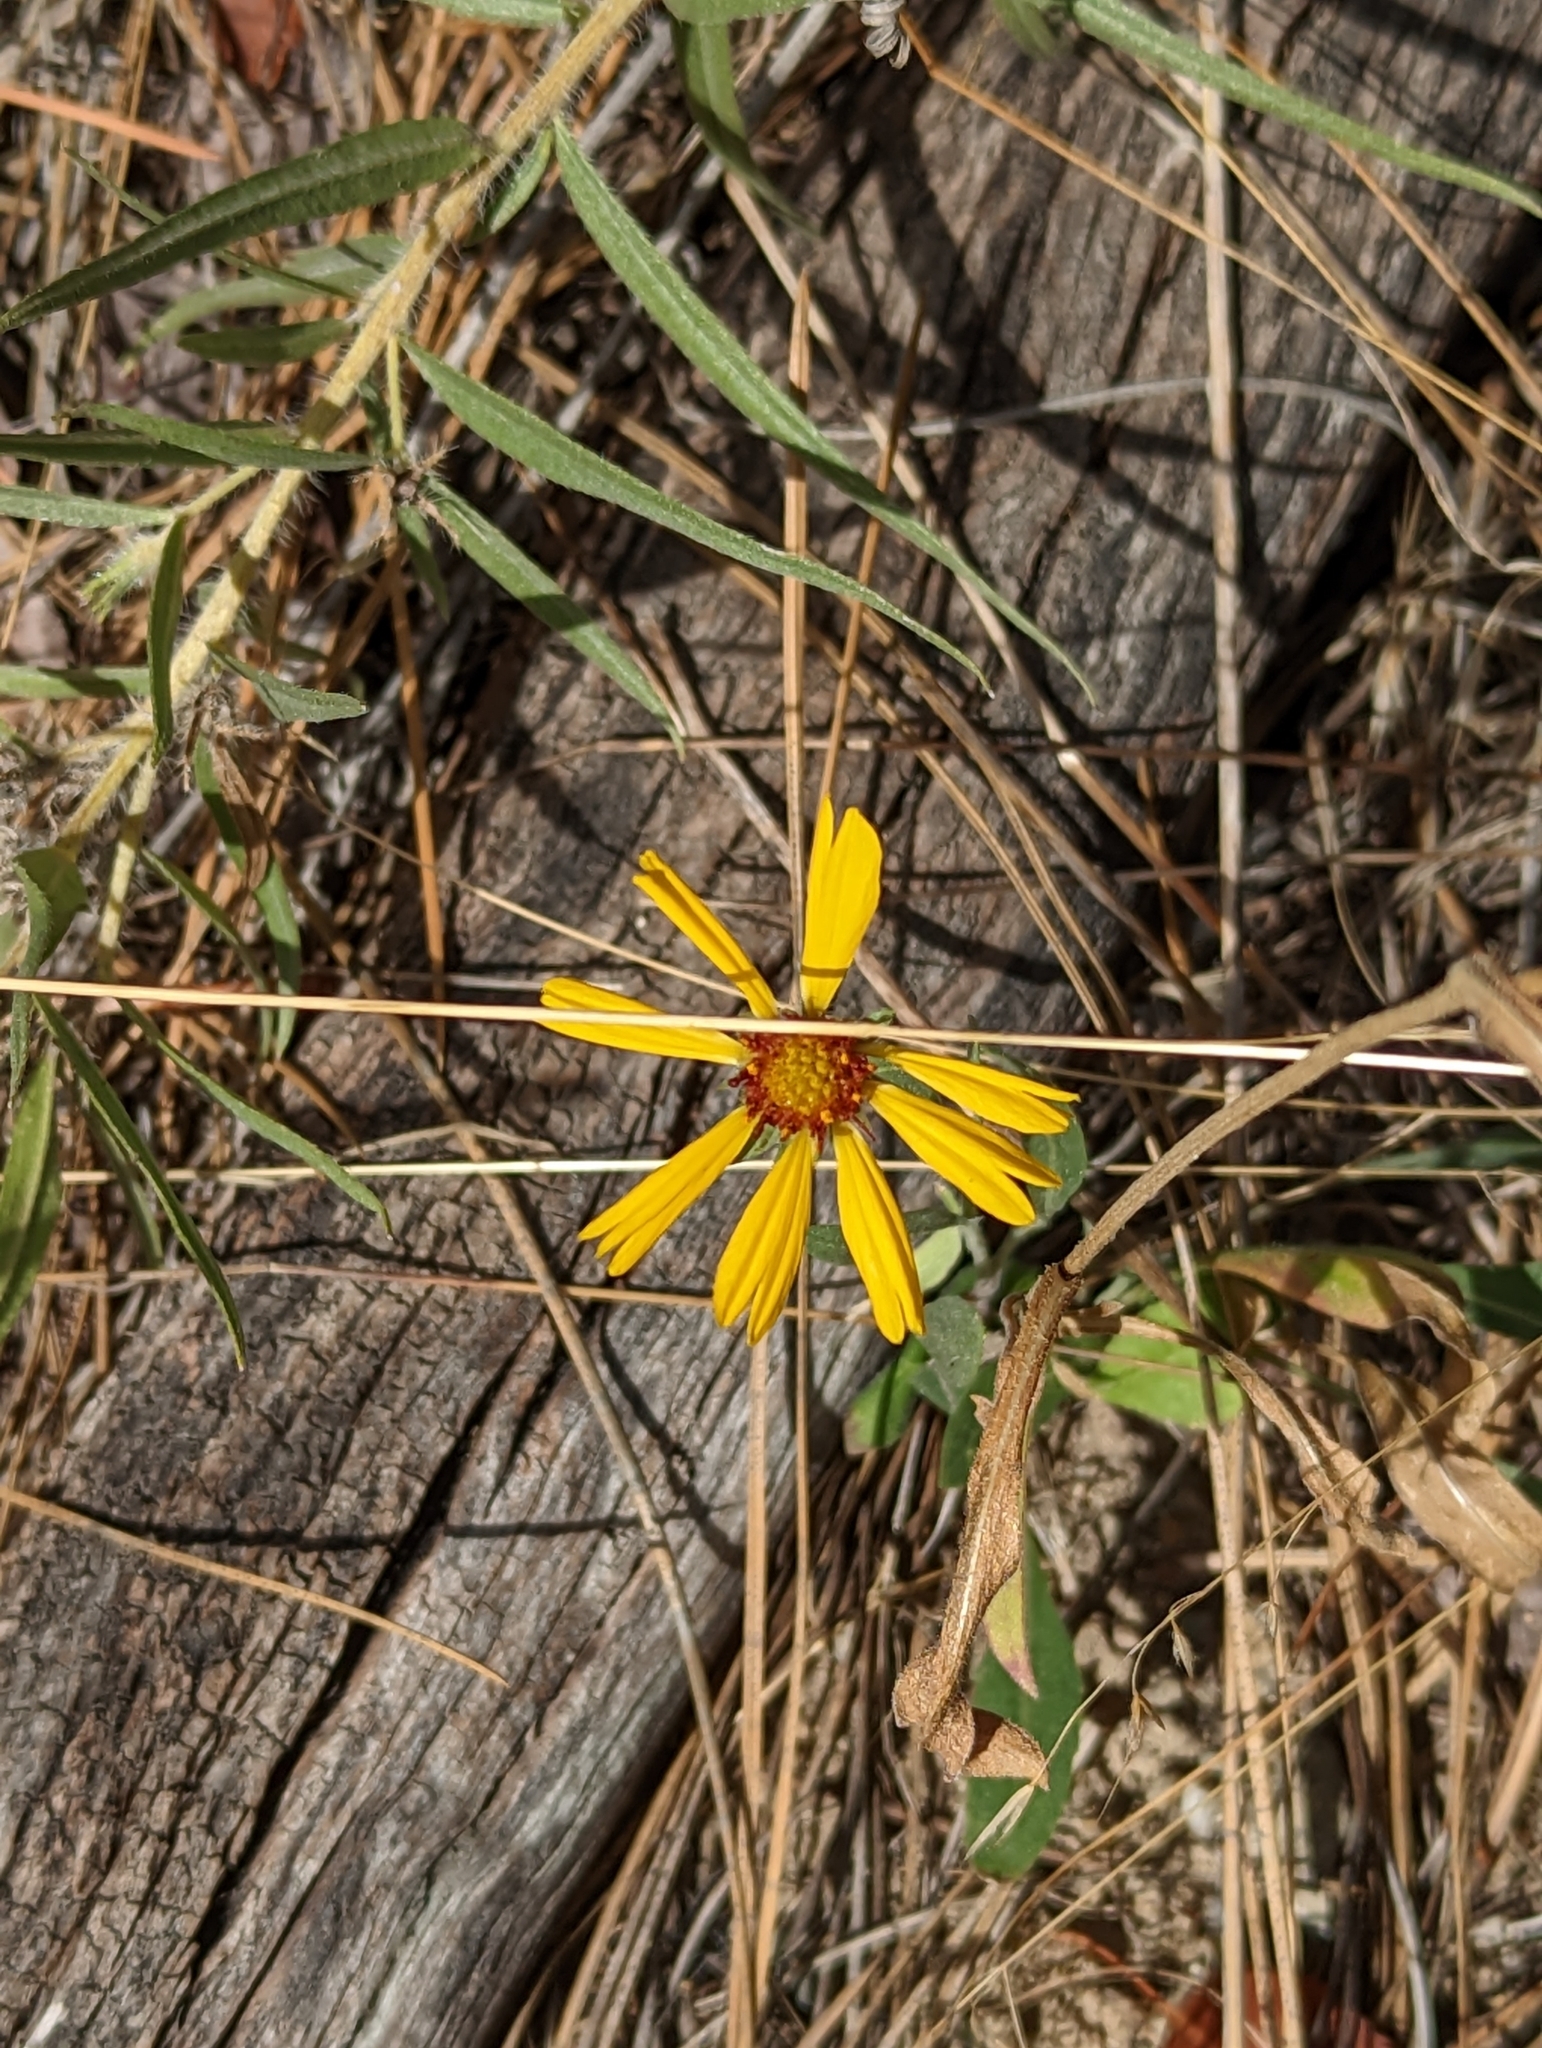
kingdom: Plantae
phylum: Tracheophyta
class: Magnoliopsida
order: Asterales
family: Asteraceae
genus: Gaillardia
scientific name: Gaillardia aristata
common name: Blanket-flower
